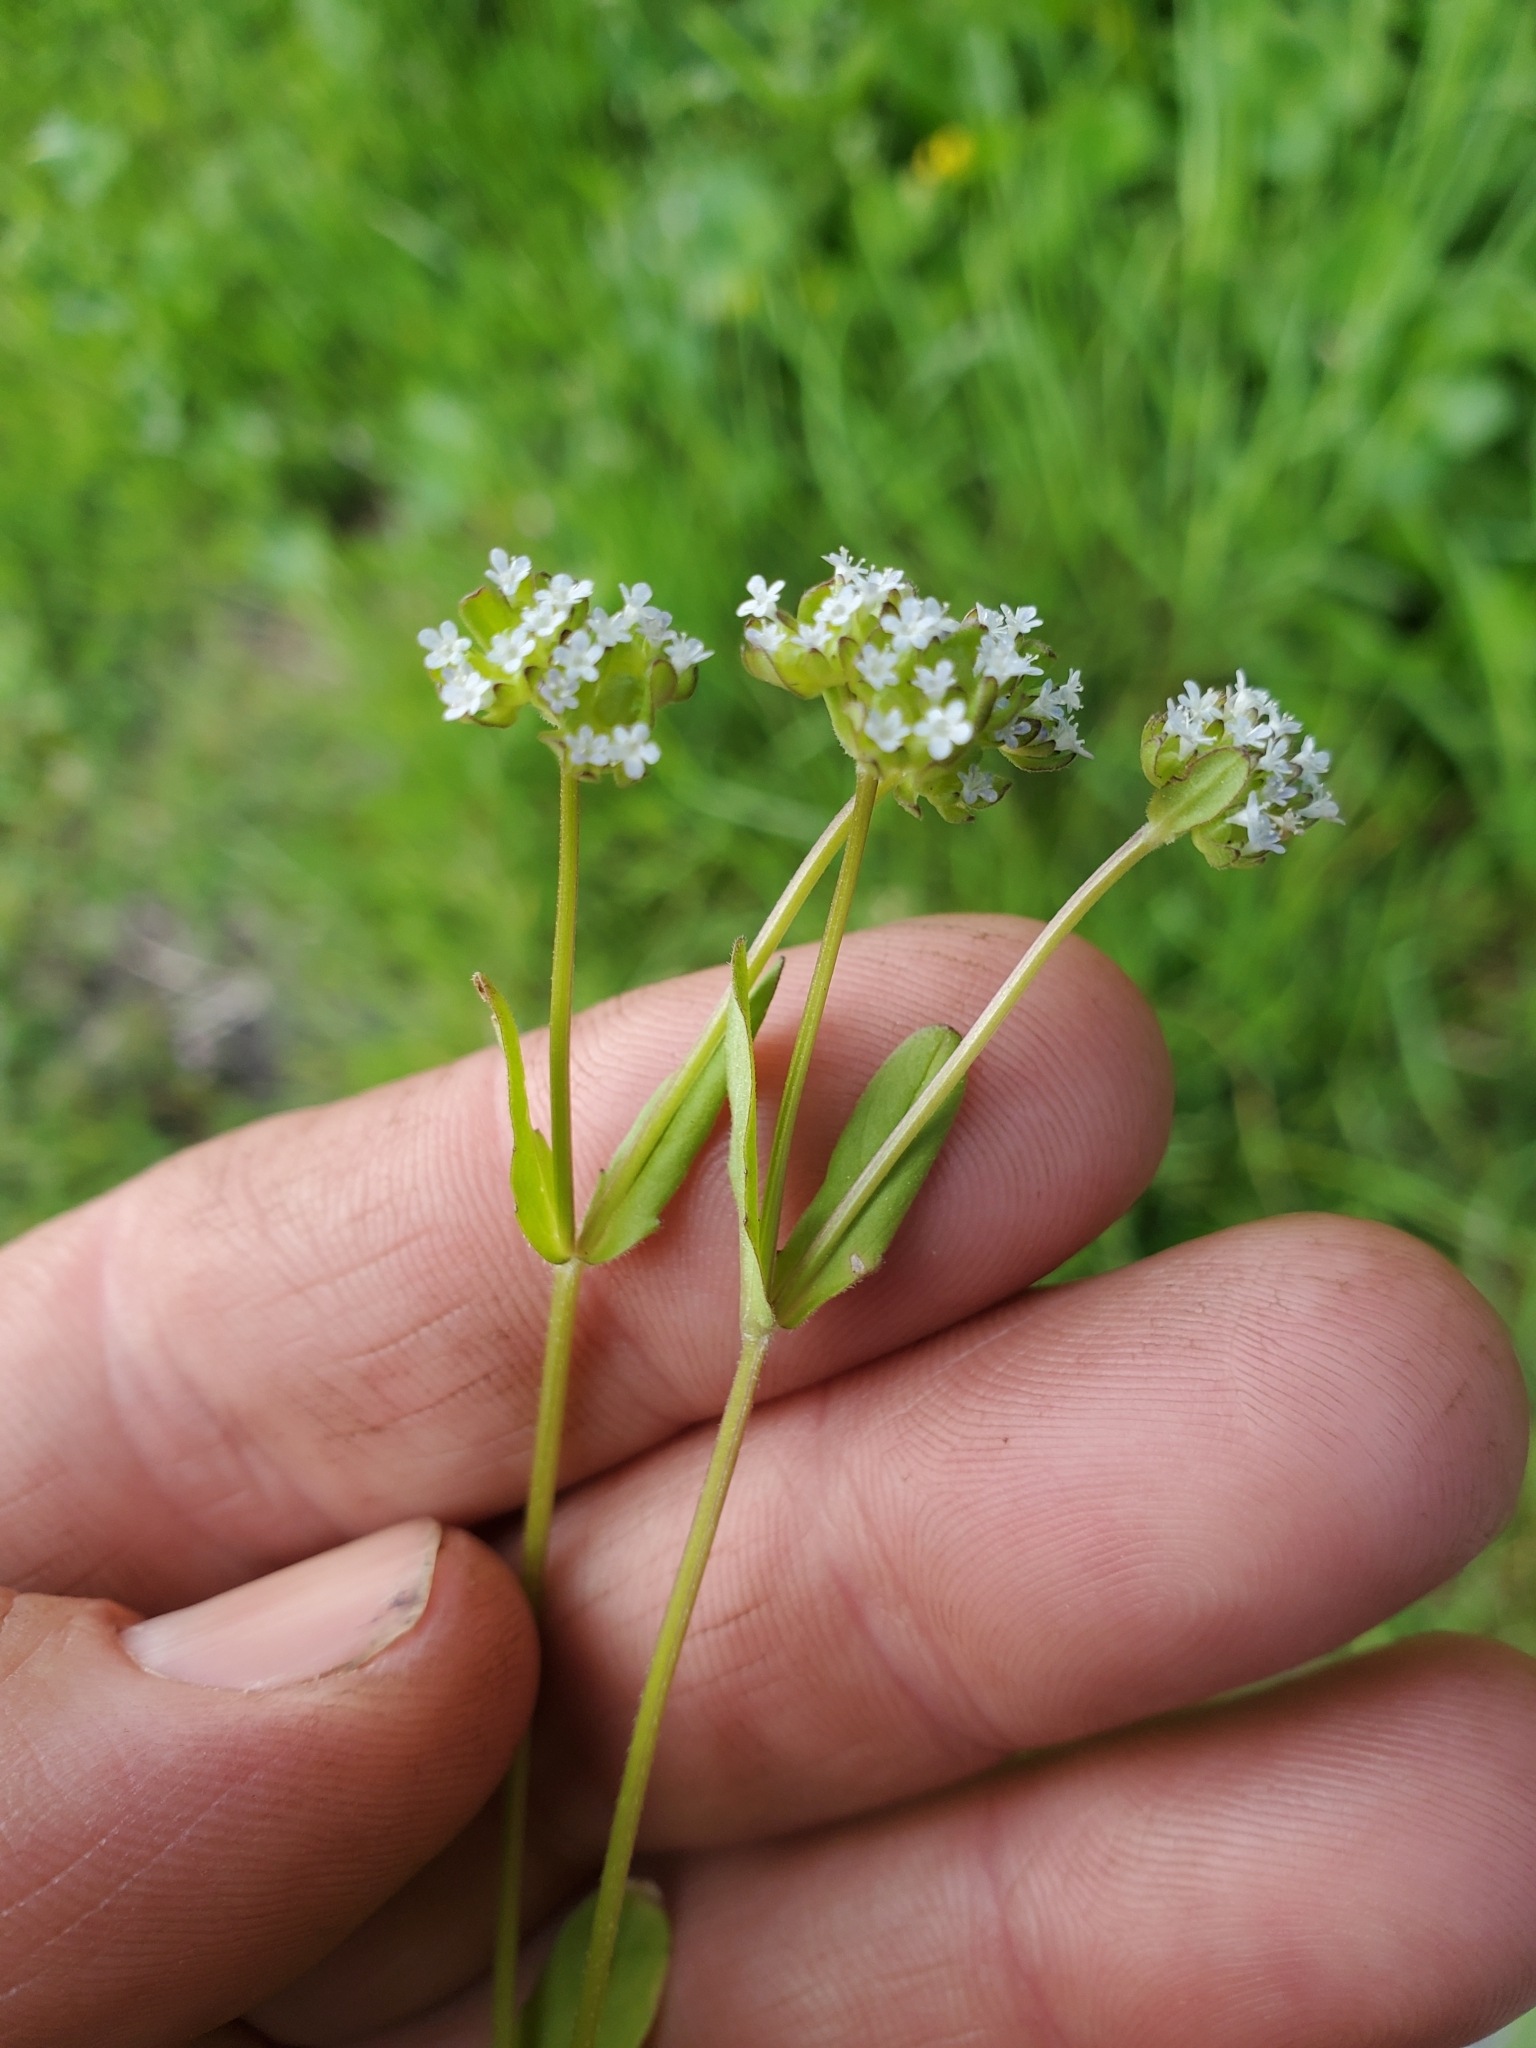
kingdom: Plantae
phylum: Tracheophyta
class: Magnoliopsida
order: Dipsacales
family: Caprifoliaceae
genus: Valerianella
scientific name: Valerianella locusta
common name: Common cornsalad
